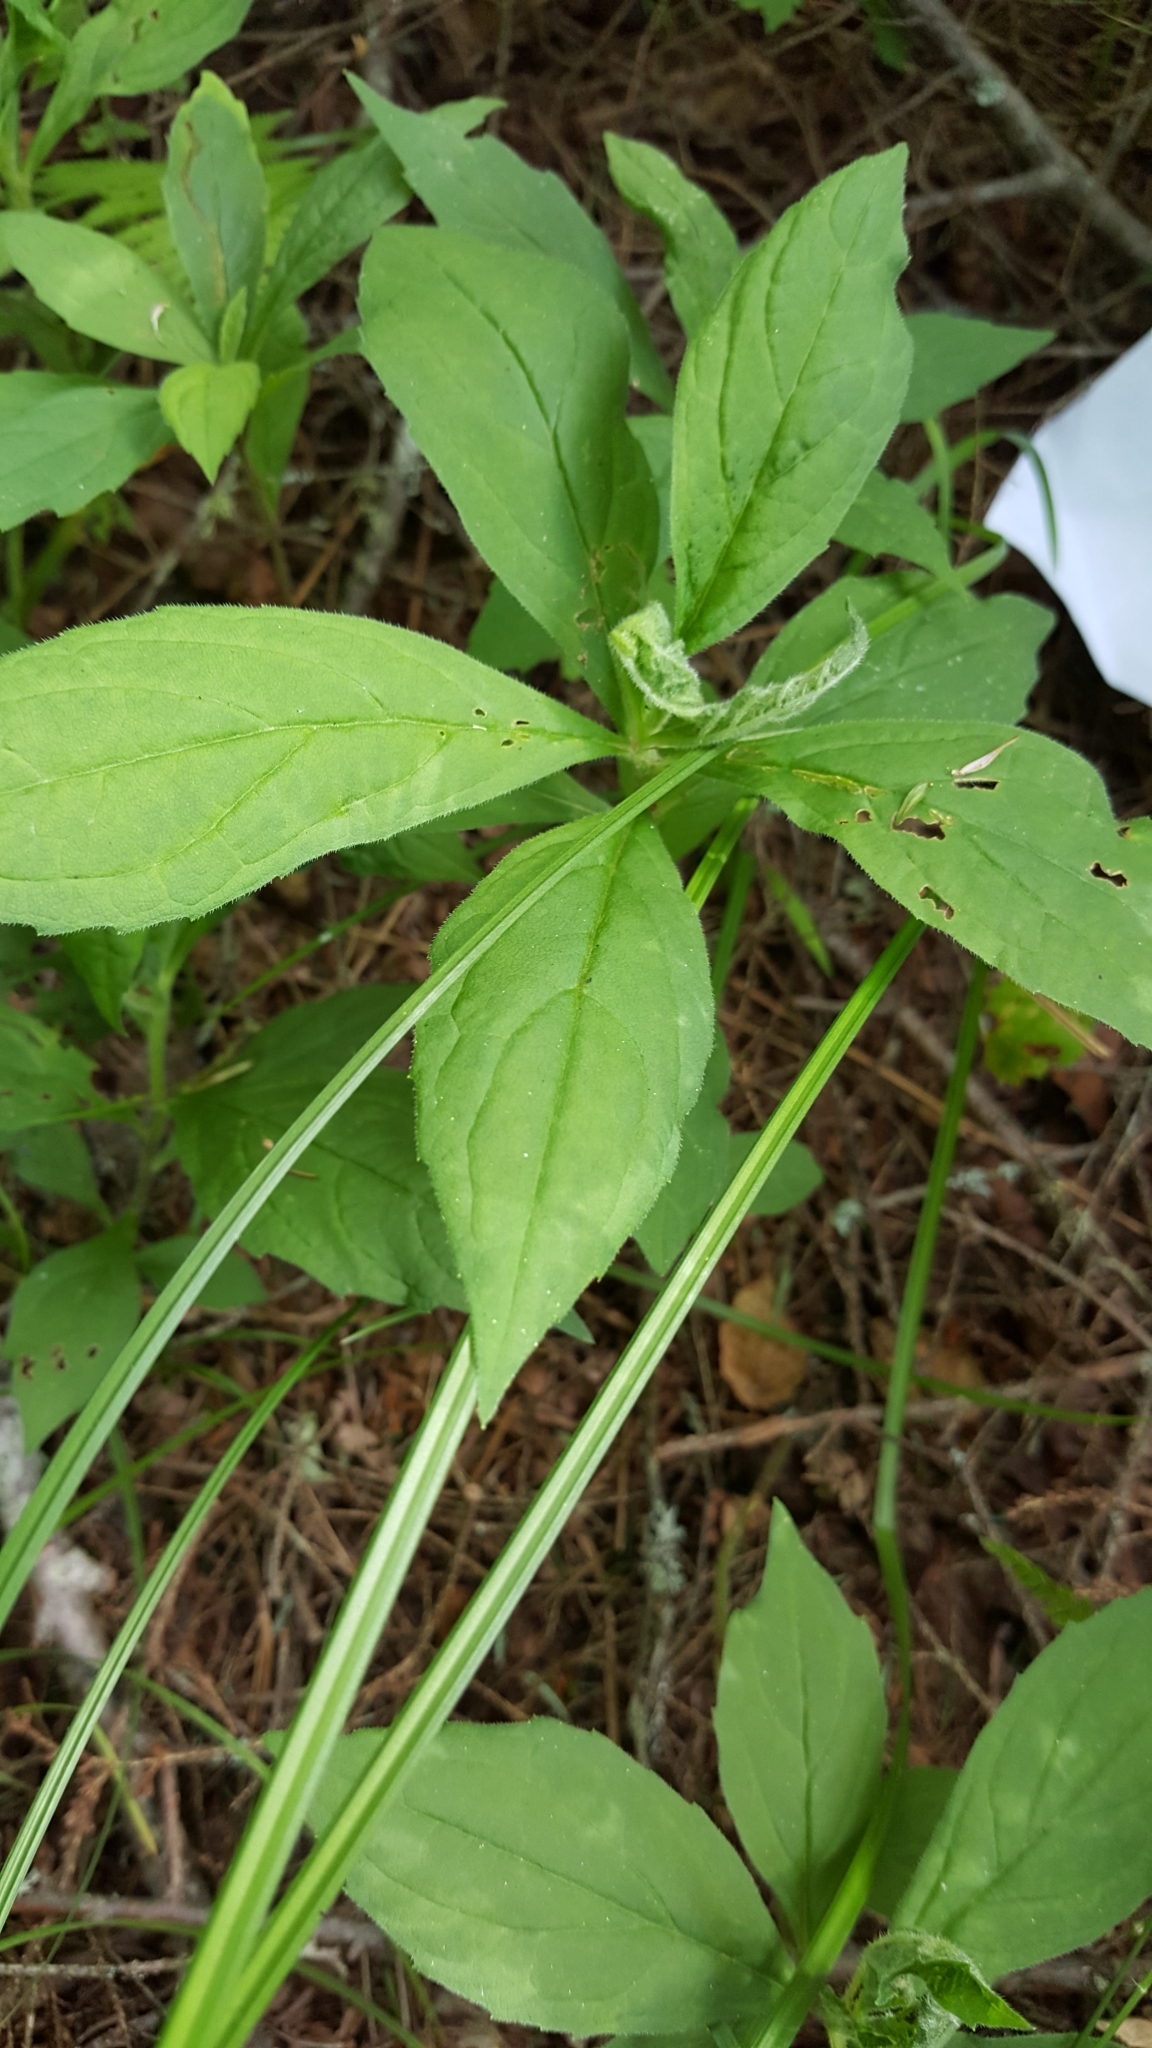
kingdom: Plantae
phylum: Tracheophyta
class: Magnoliopsida
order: Asterales
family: Asteraceae
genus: Oclemena
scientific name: Oclemena acuminata
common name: Mountain aster
